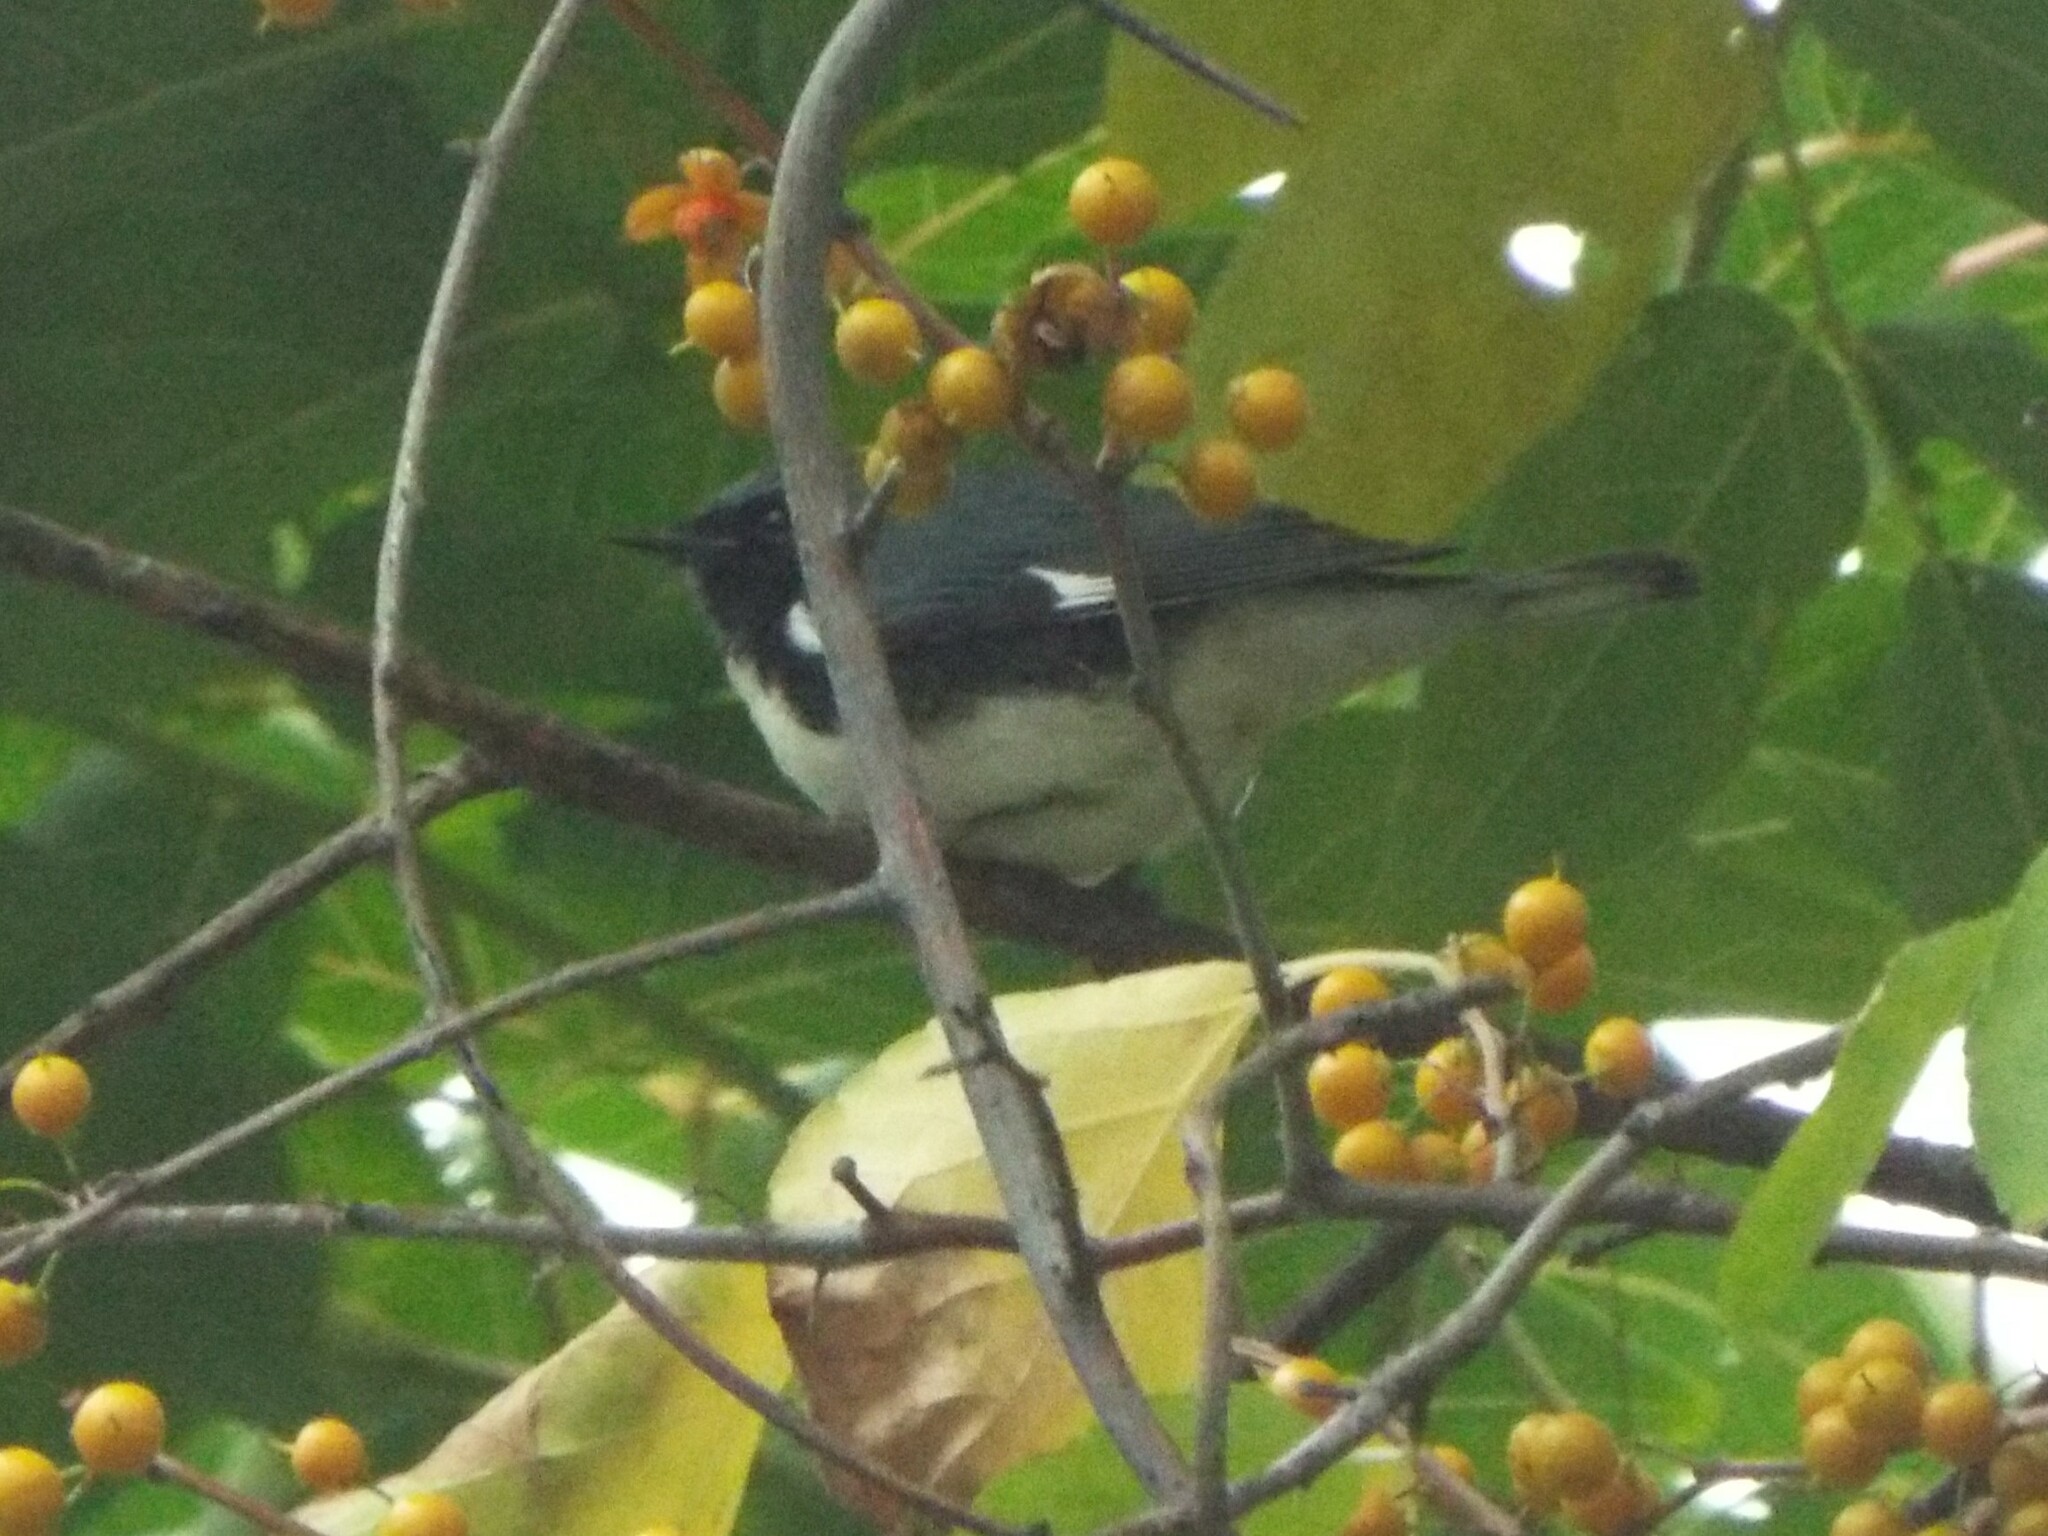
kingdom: Animalia
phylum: Chordata
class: Aves
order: Passeriformes
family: Parulidae
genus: Setophaga
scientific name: Setophaga caerulescens
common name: Black-throated blue warbler
